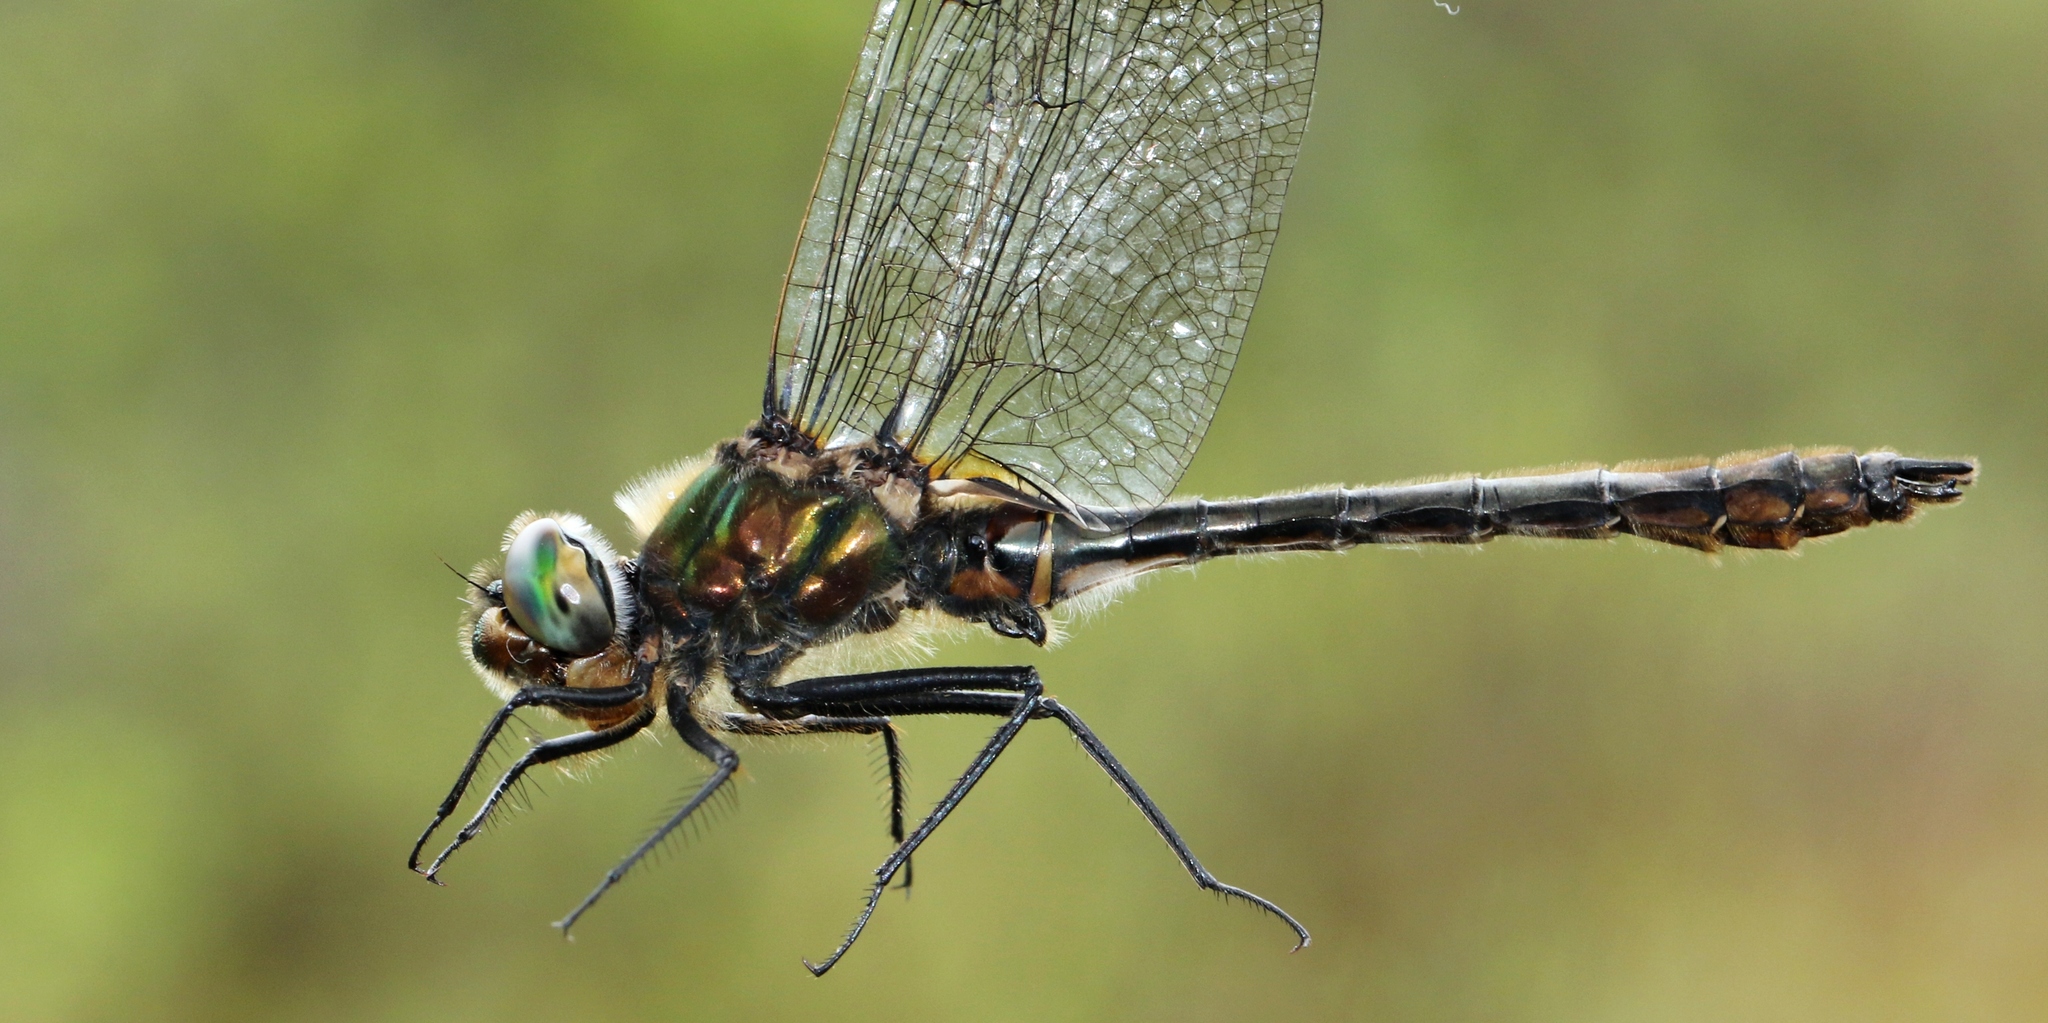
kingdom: Animalia
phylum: Arthropoda
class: Insecta
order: Odonata
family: Corduliidae
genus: Cordulia
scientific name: Cordulia shurtleffii
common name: American emerald
